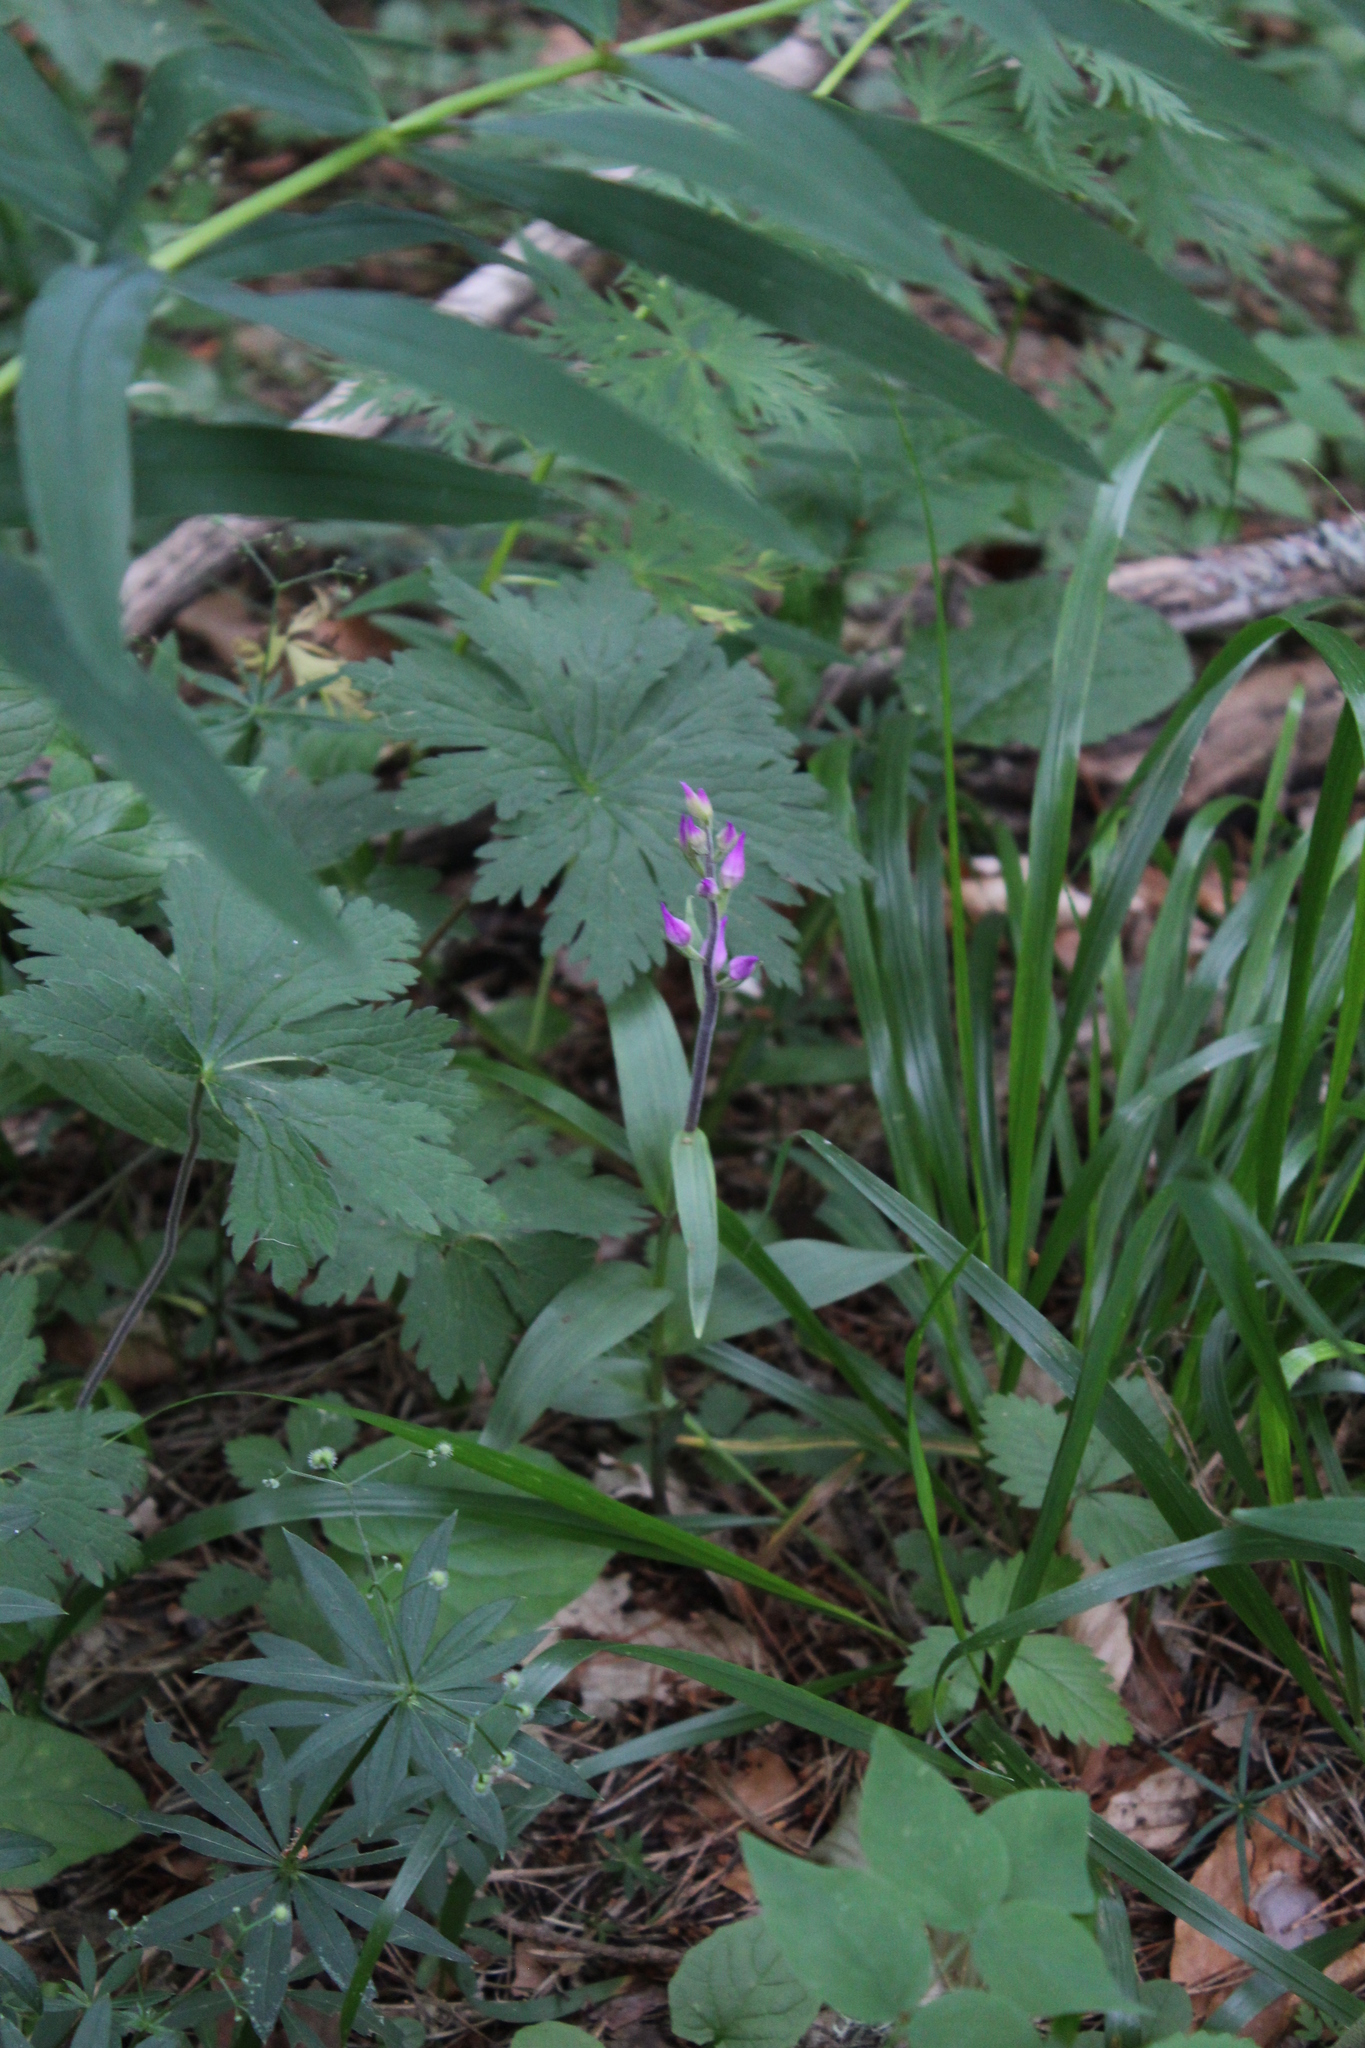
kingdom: Plantae
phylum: Tracheophyta
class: Liliopsida
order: Asparagales
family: Orchidaceae
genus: Cephalanthera
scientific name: Cephalanthera rubra
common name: Red helleborine
